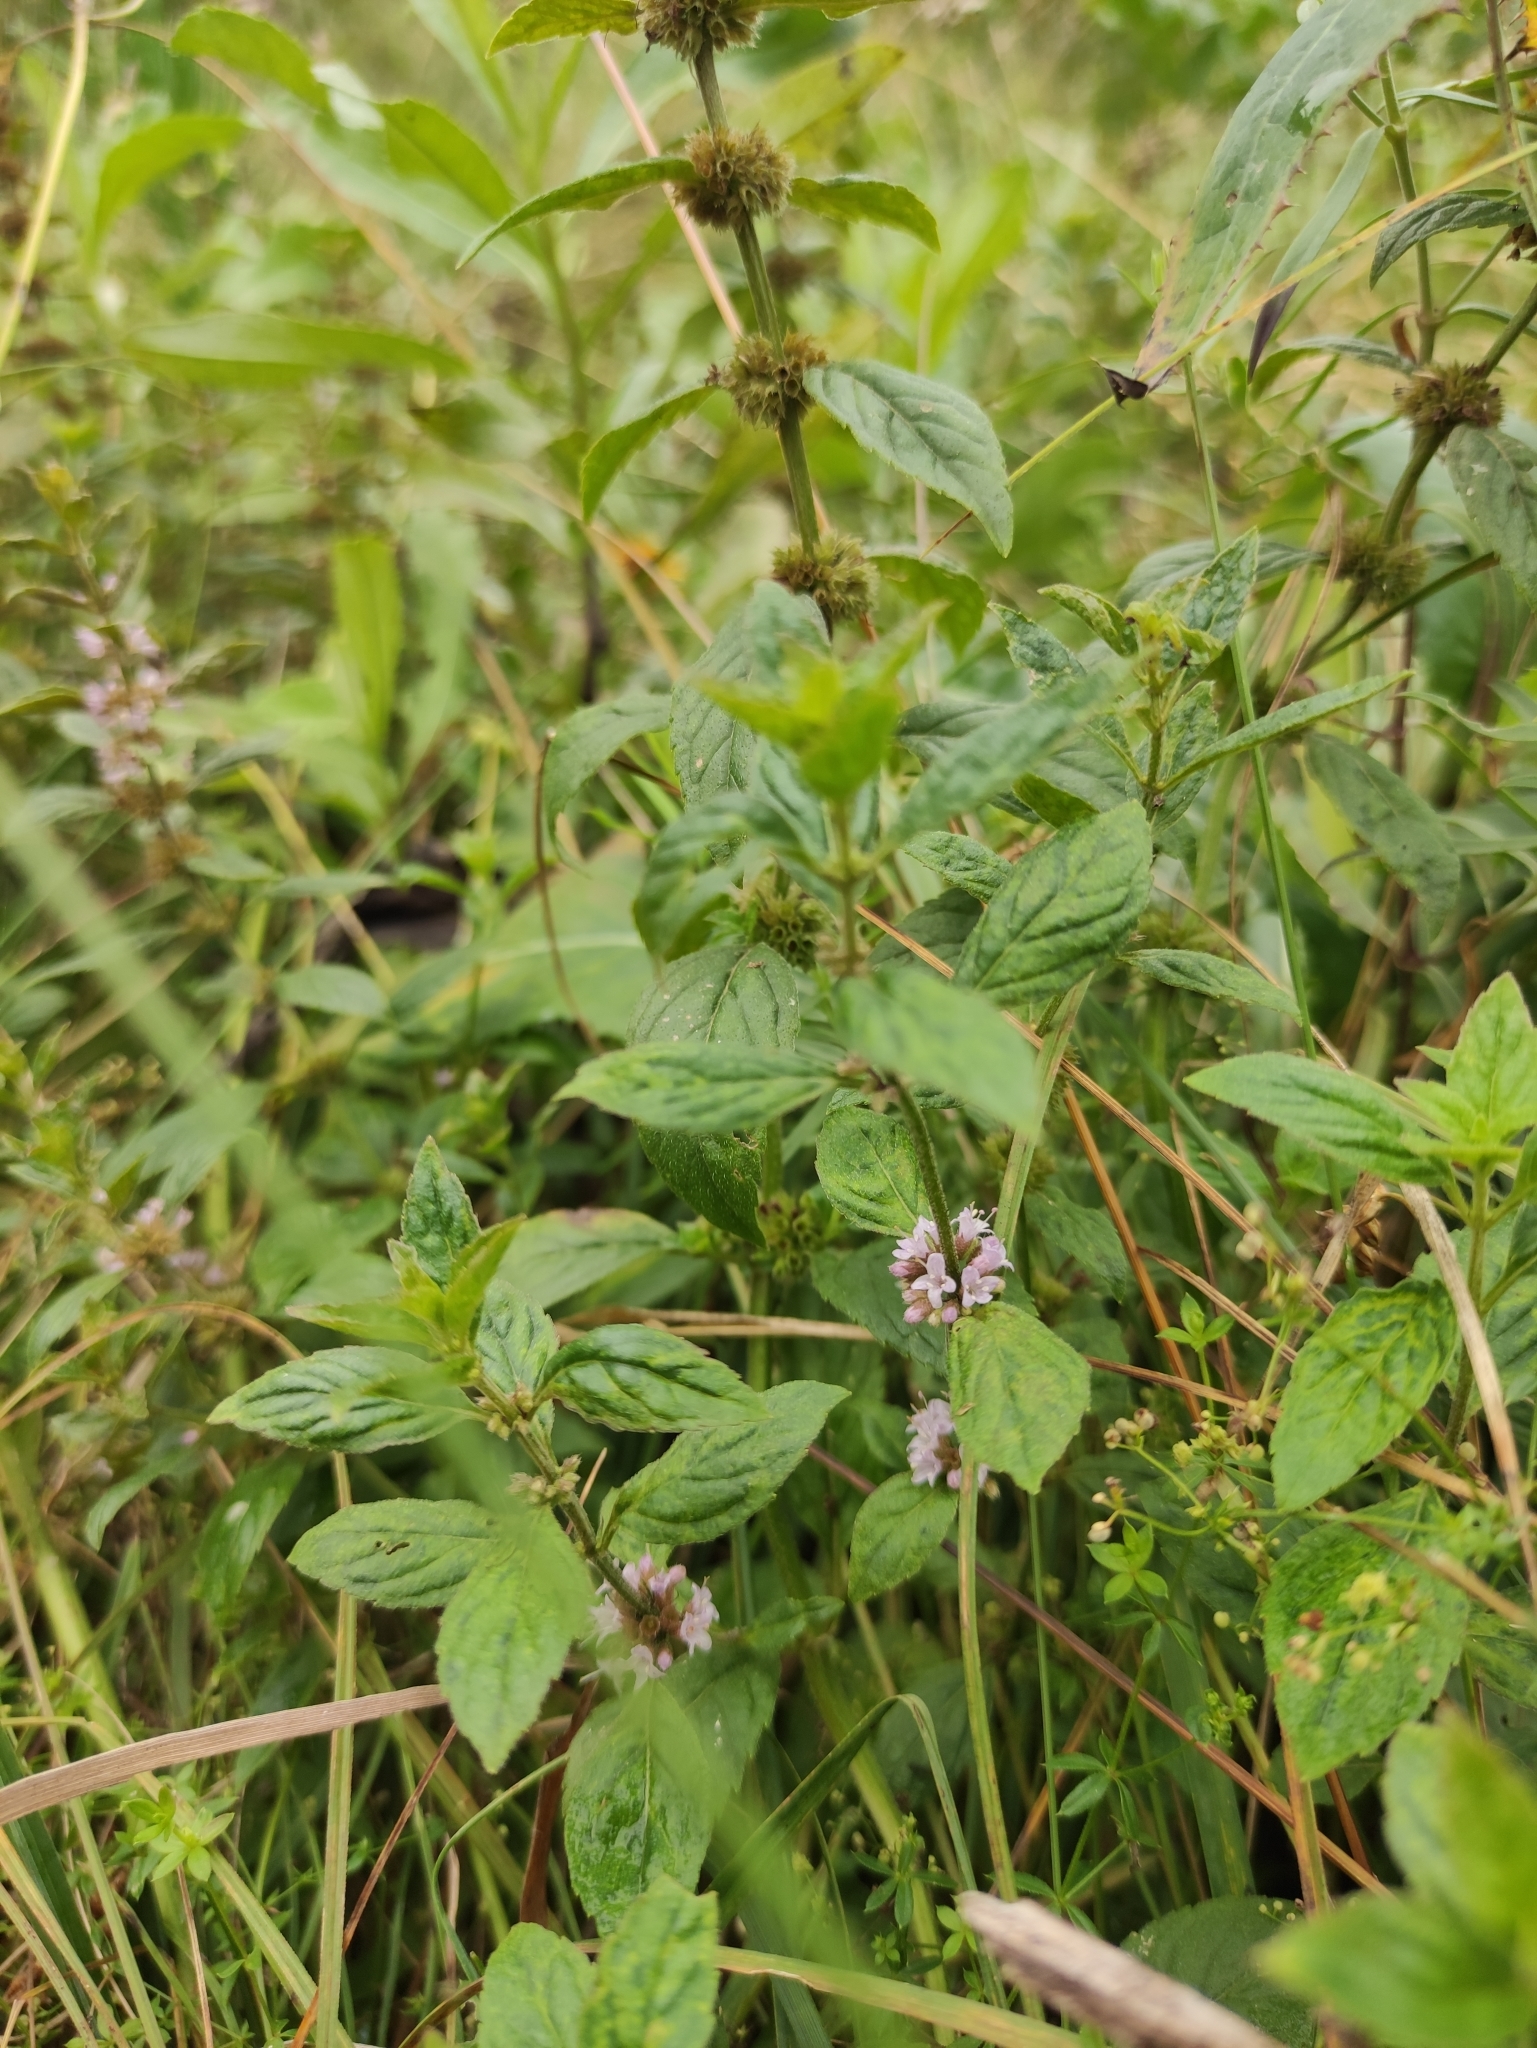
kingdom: Plantae
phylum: Tracheophyta
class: Magnoliopsida
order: Lamiales
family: Lamiaceae
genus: Mentha
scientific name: Mentha arvensis
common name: Corn mint
